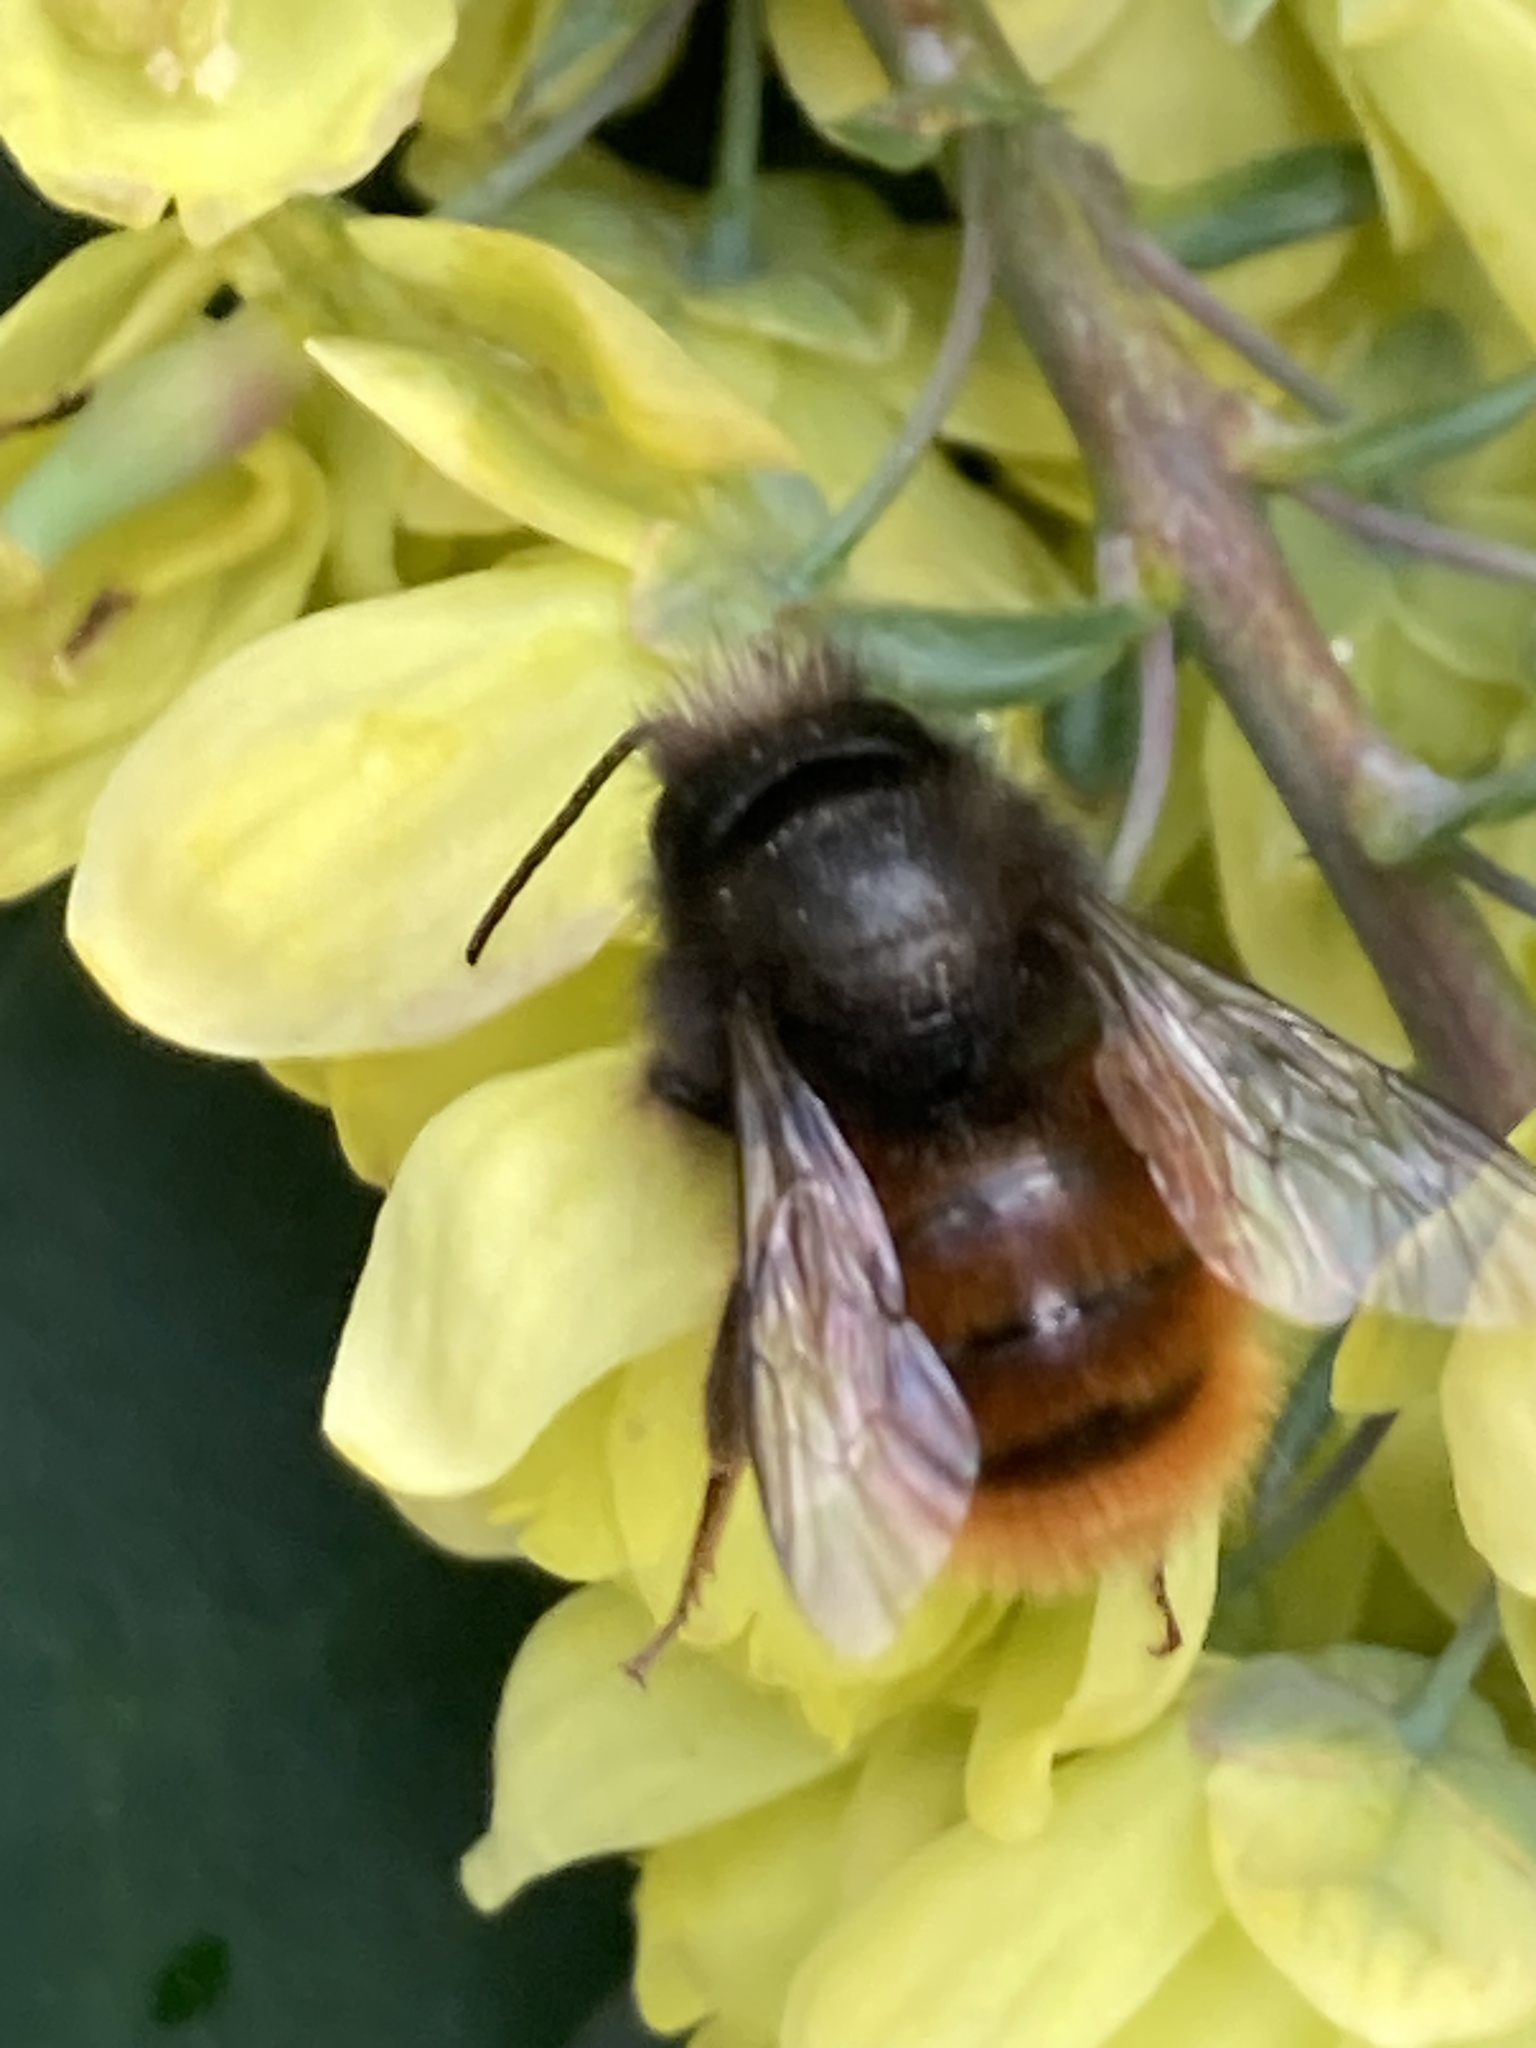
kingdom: Animalia
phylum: Arthropoda
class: Insecta
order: Hymenoptera
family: Megachilidae
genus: Osmia
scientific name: Osmia cornuta
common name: Mason bee
